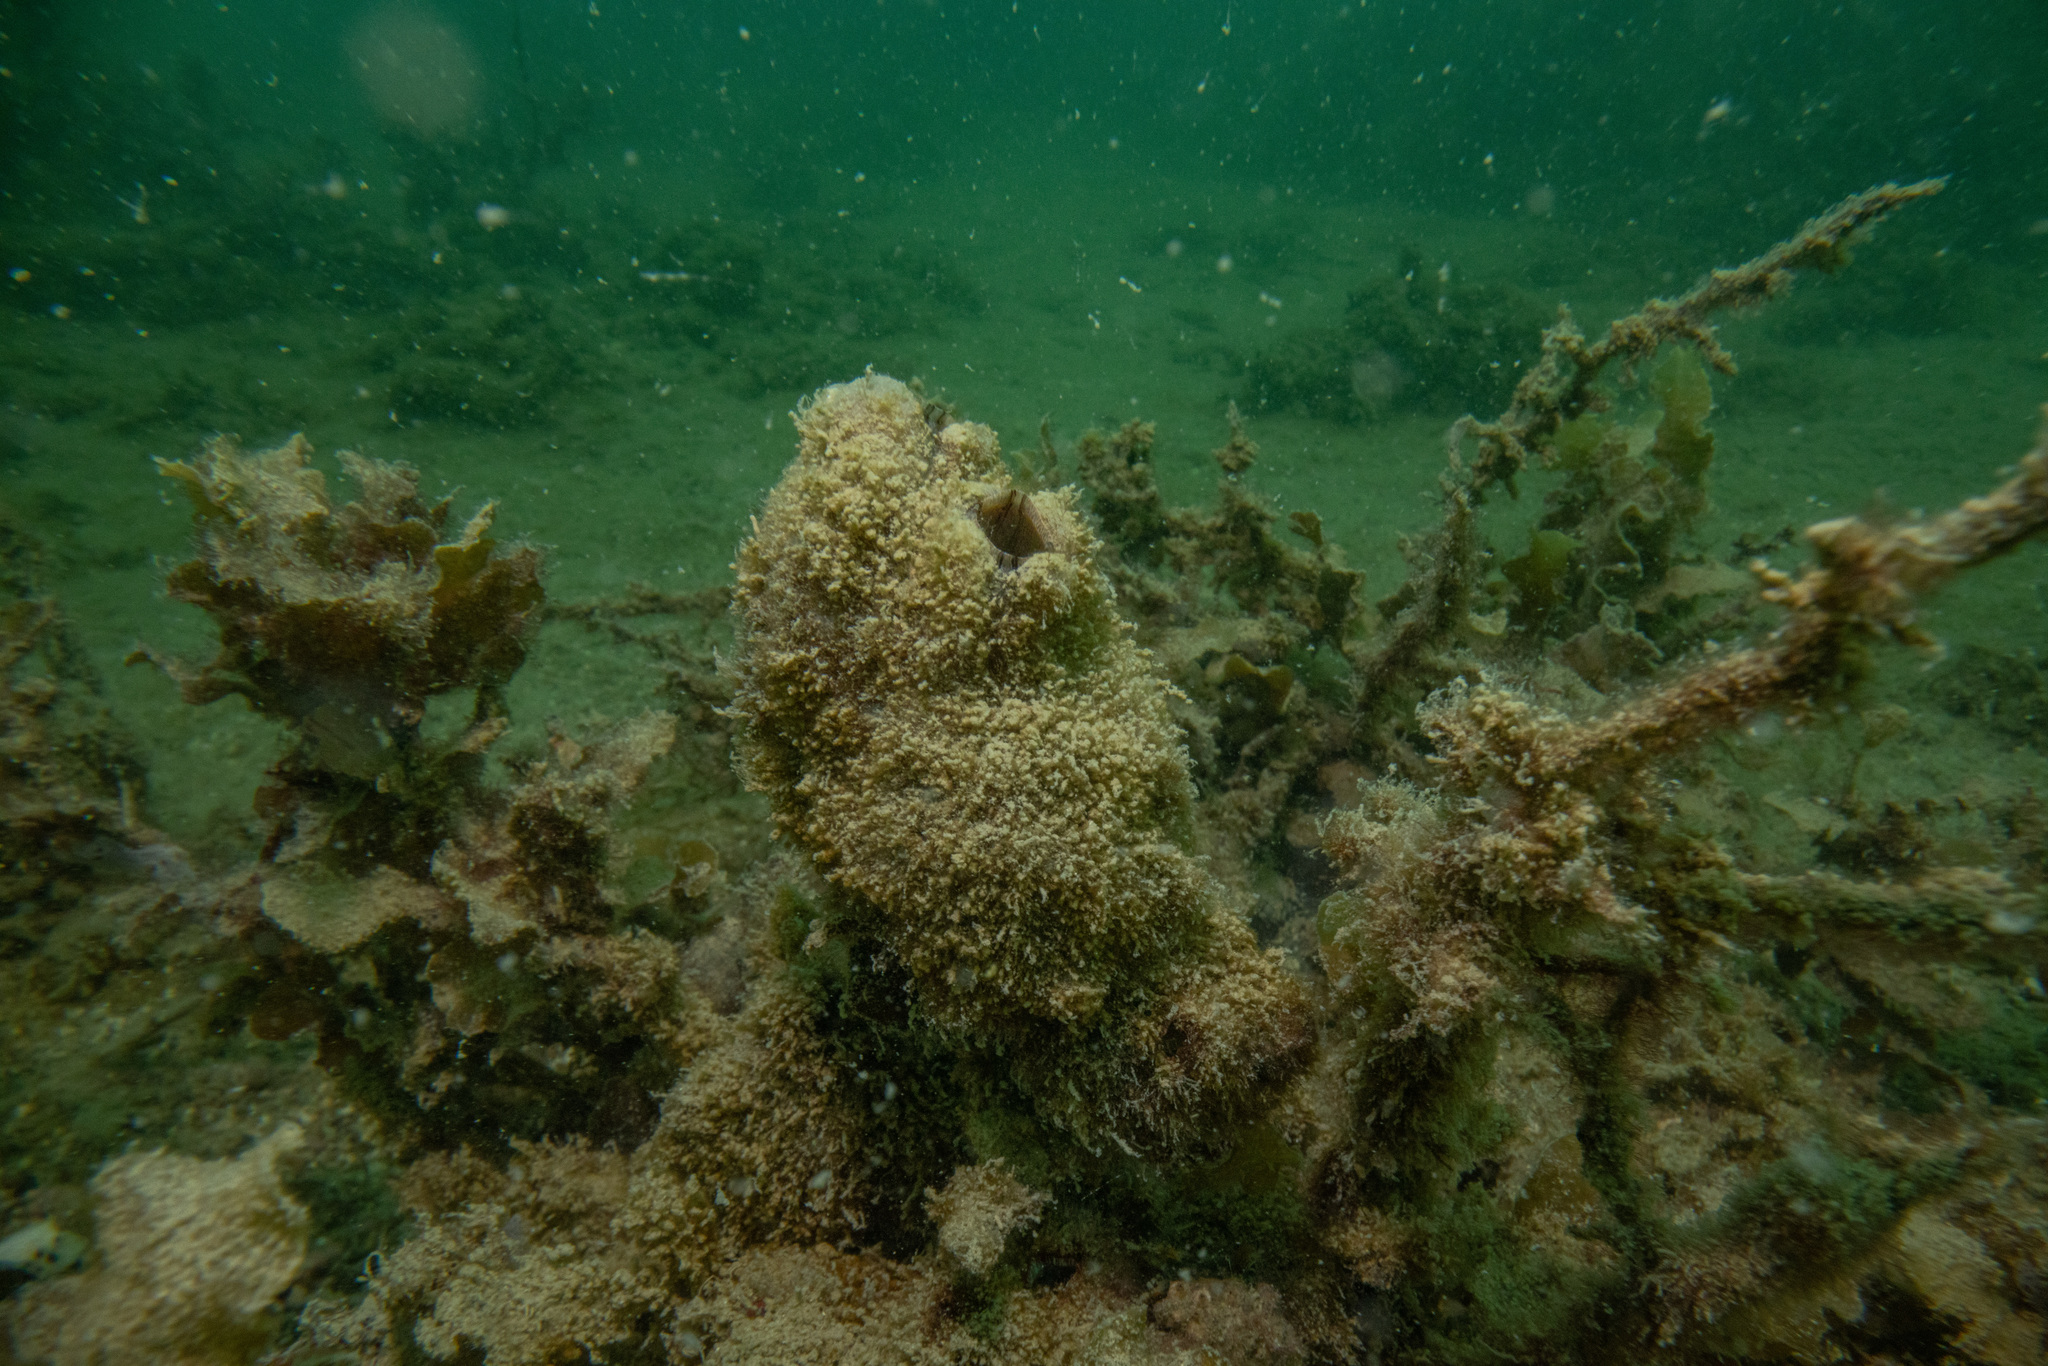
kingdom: Animalia
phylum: Chordata
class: Ascidiacea
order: Stolidobranchia
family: Styelidae
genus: Styela
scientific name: Styela plicata
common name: Pleated tunicate
